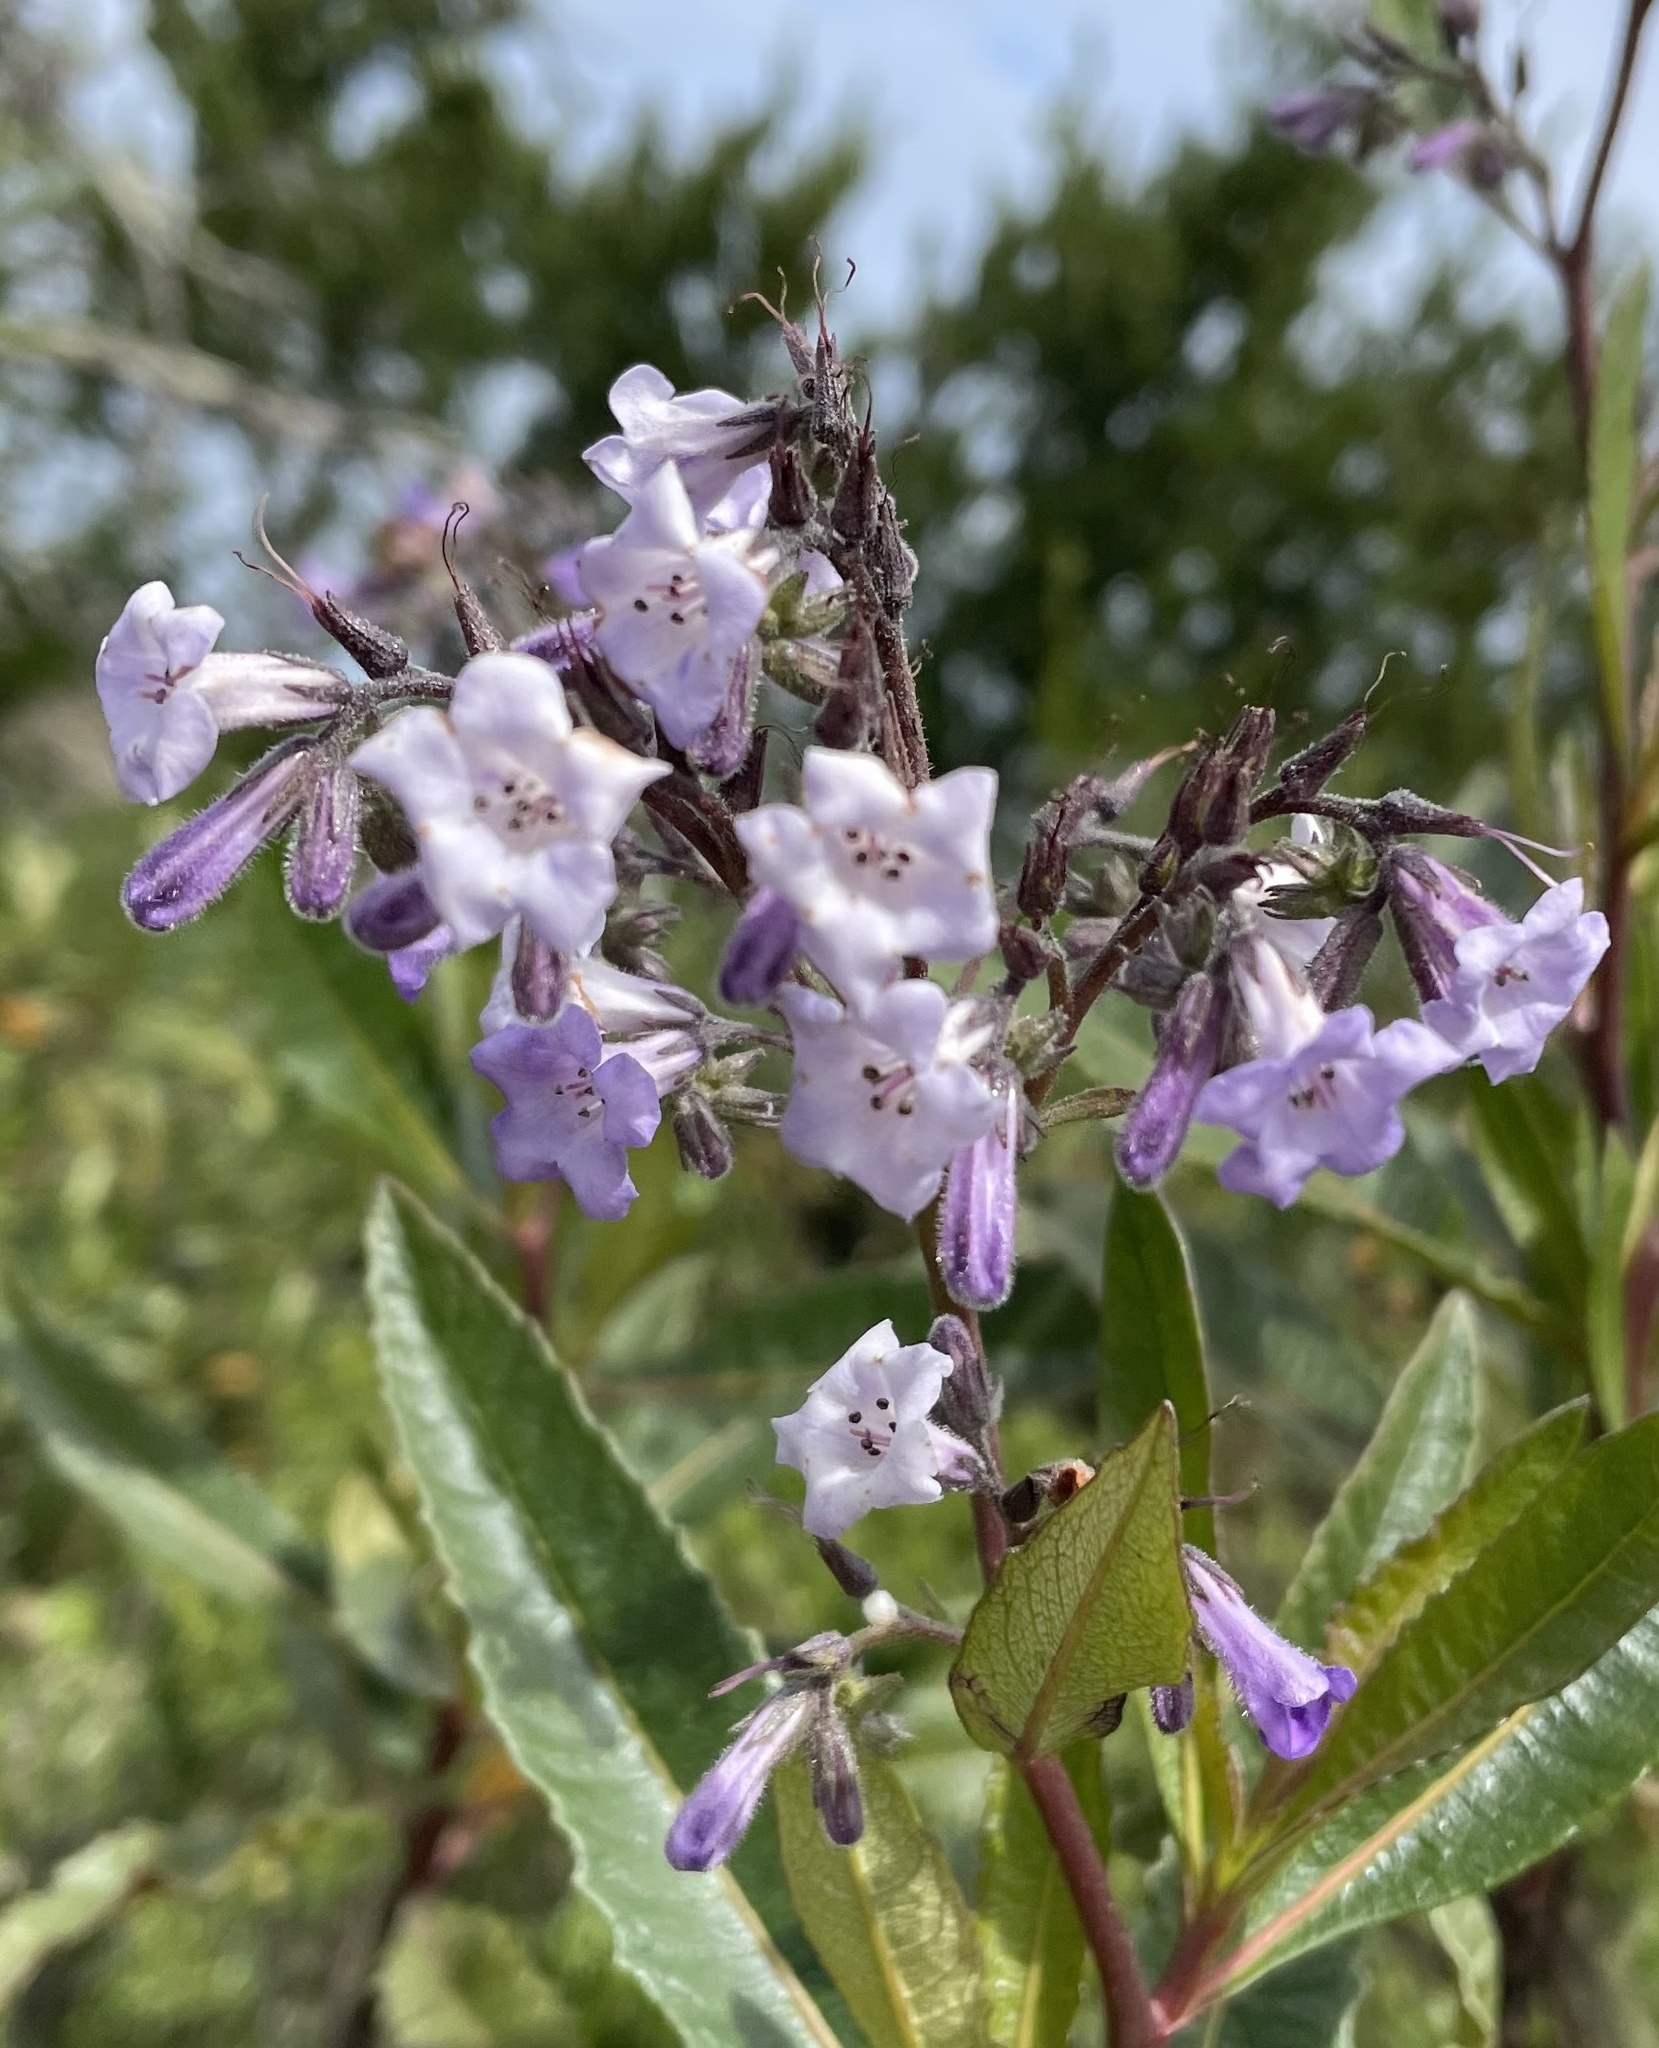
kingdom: Plantae
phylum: Tracheophyta
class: Magnoliopsida
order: Boraginales
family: Namaceae
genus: Eriodictyon
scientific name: Eriodictyon californicum
